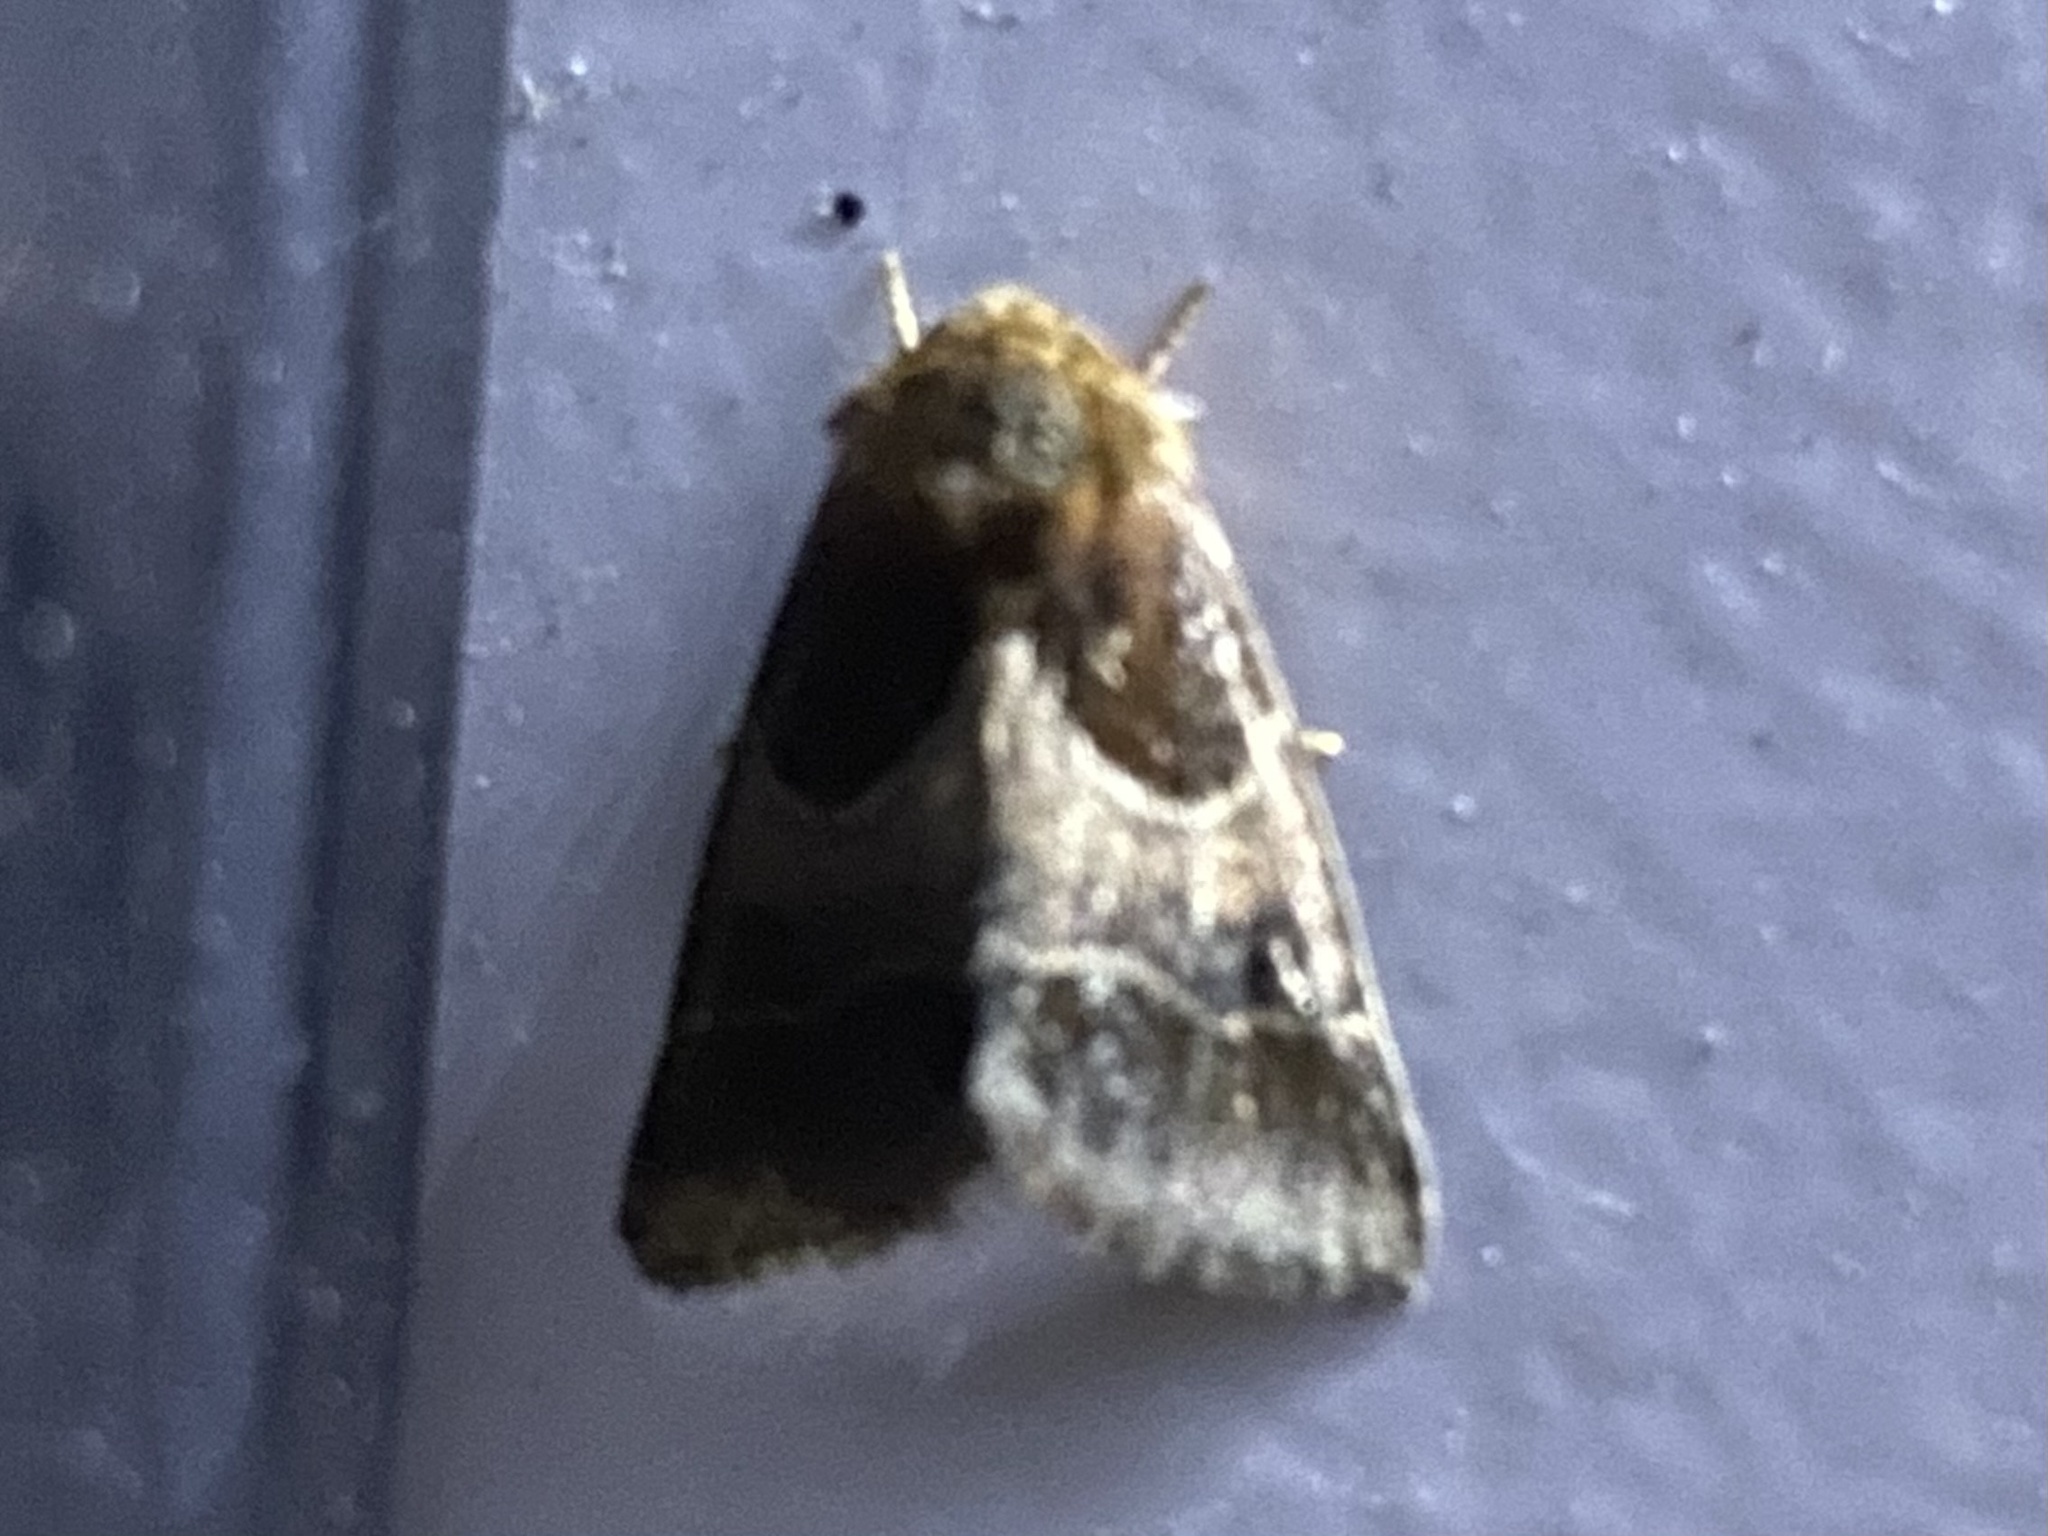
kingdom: Animalia
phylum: Arthropoda
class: Insecta
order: Lepidoptera
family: Noctuidae
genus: Schinia
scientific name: Schinia arcigera
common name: Arcigera flower moth
